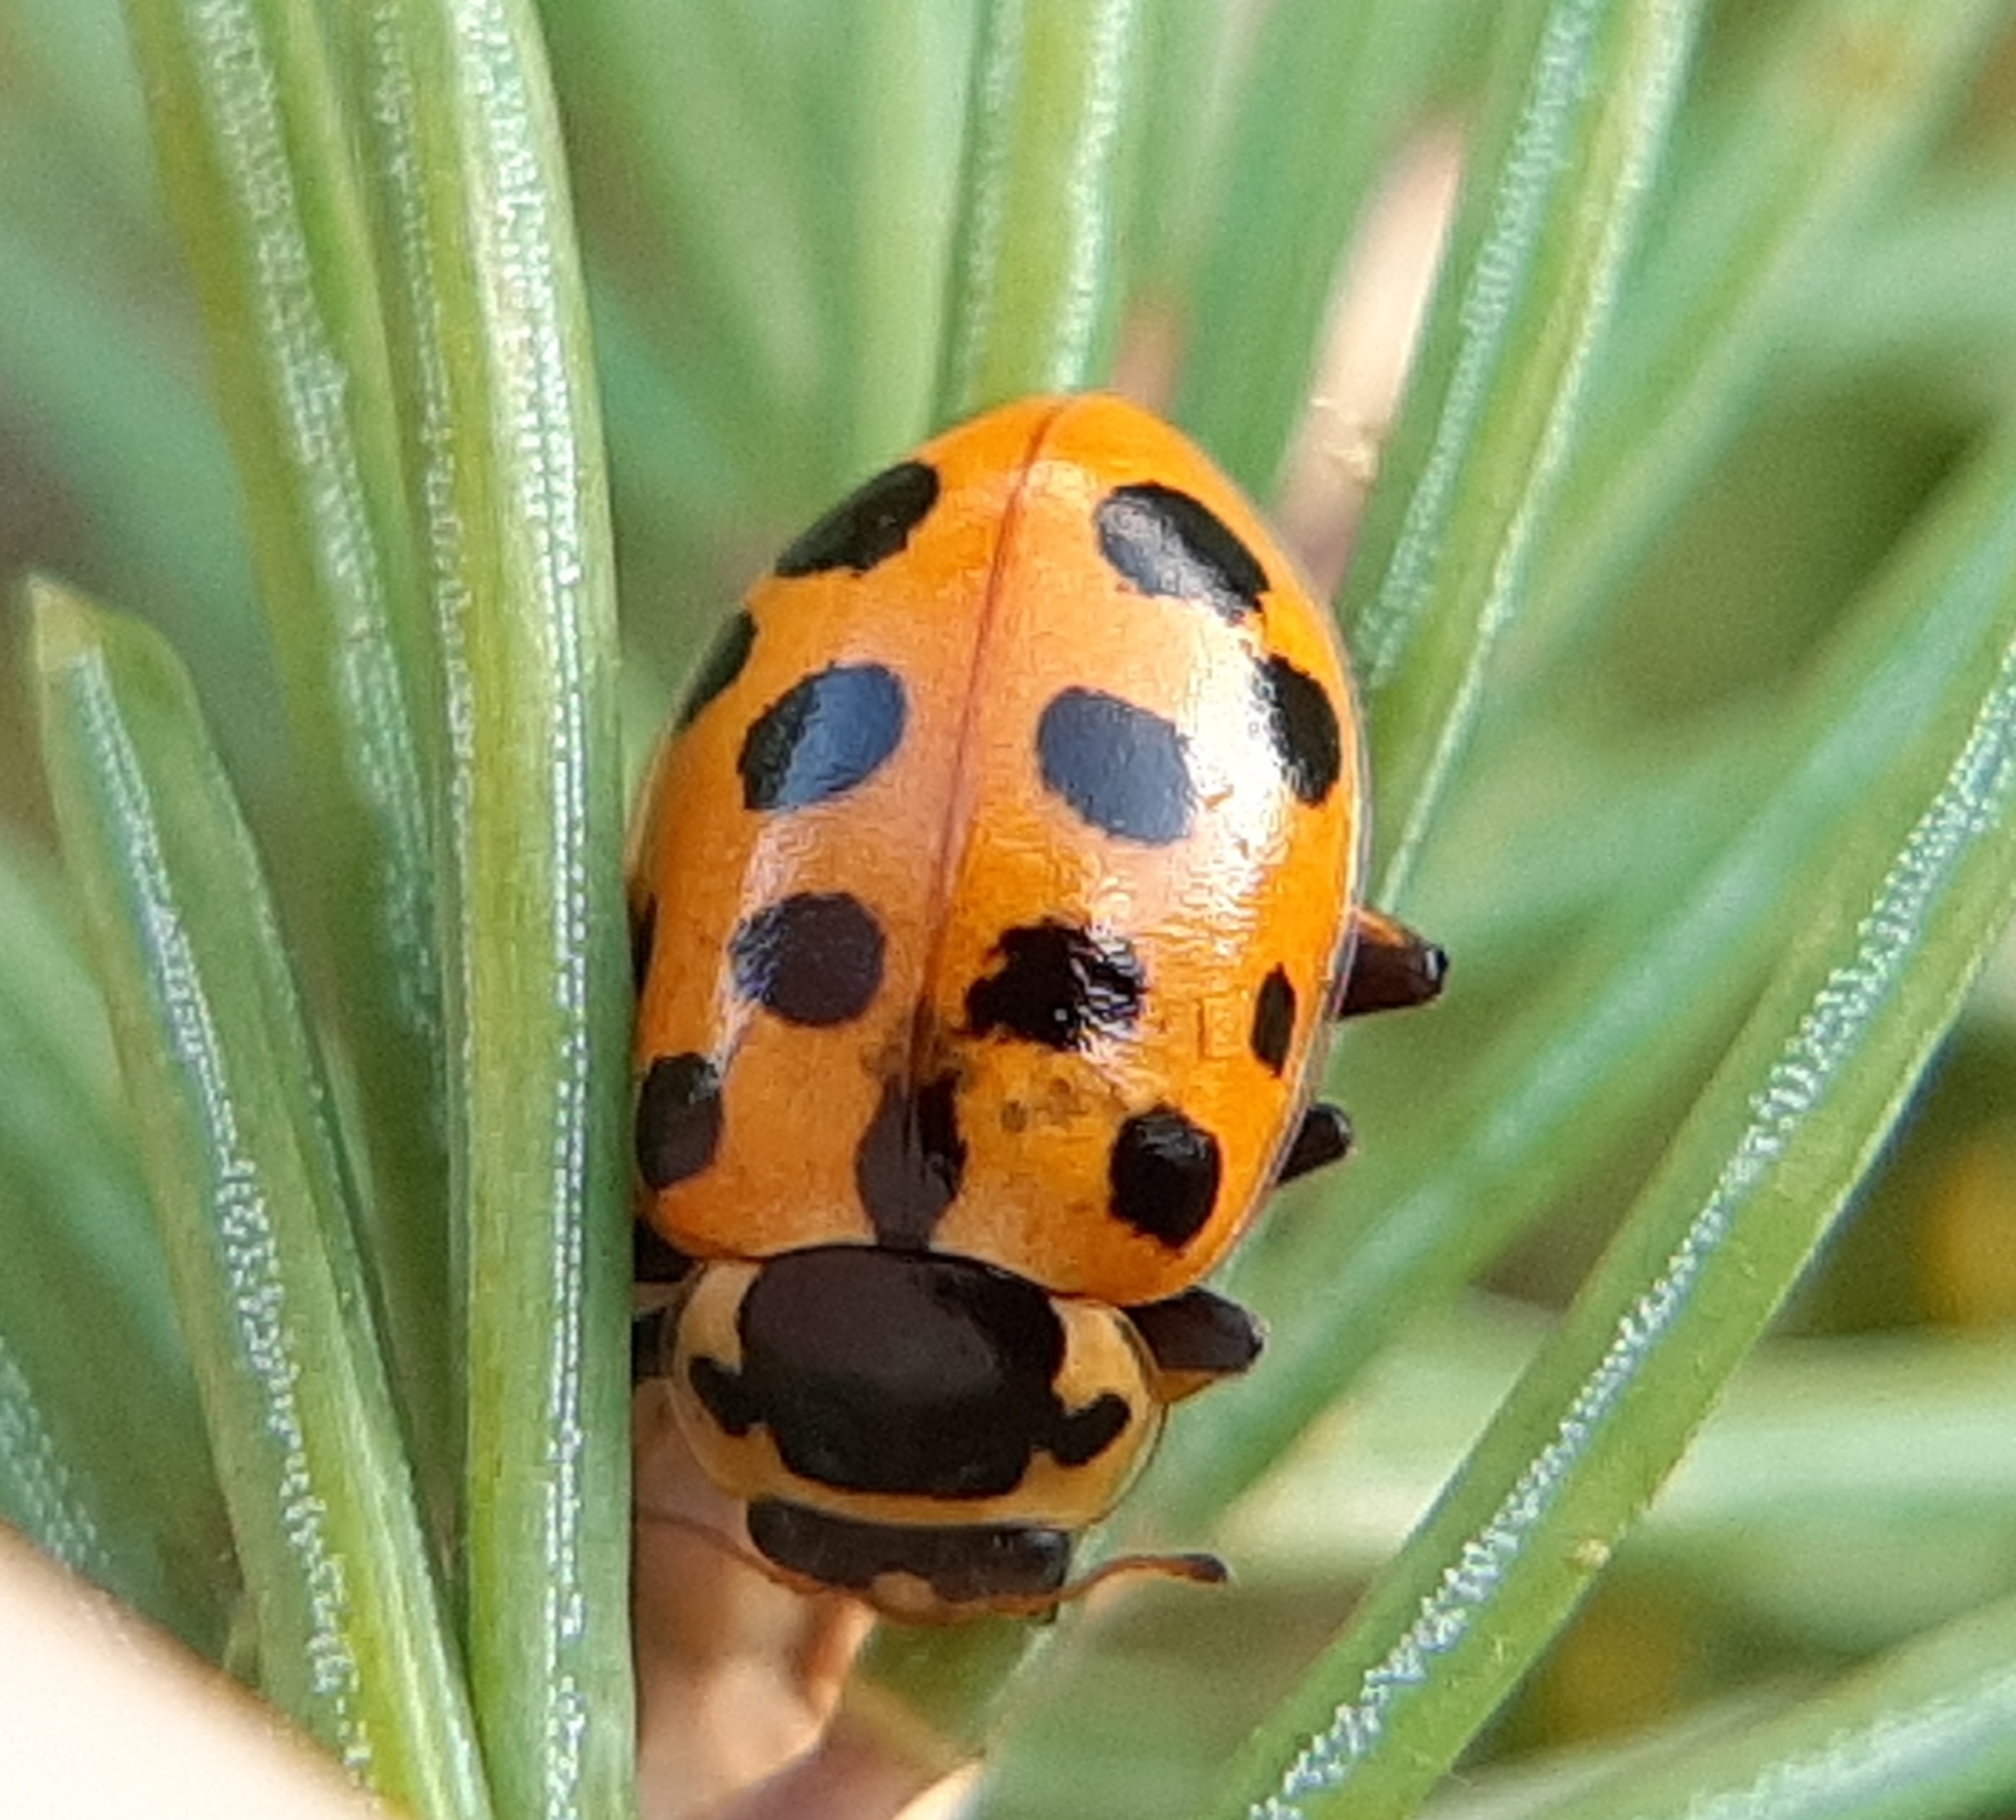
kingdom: Animalia
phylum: Arthropoda
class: Insecta
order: Coleoptera
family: Coccinellidae
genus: Hippodamia
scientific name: Hippodamia tredecimpunctata
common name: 13-spot ladybird
